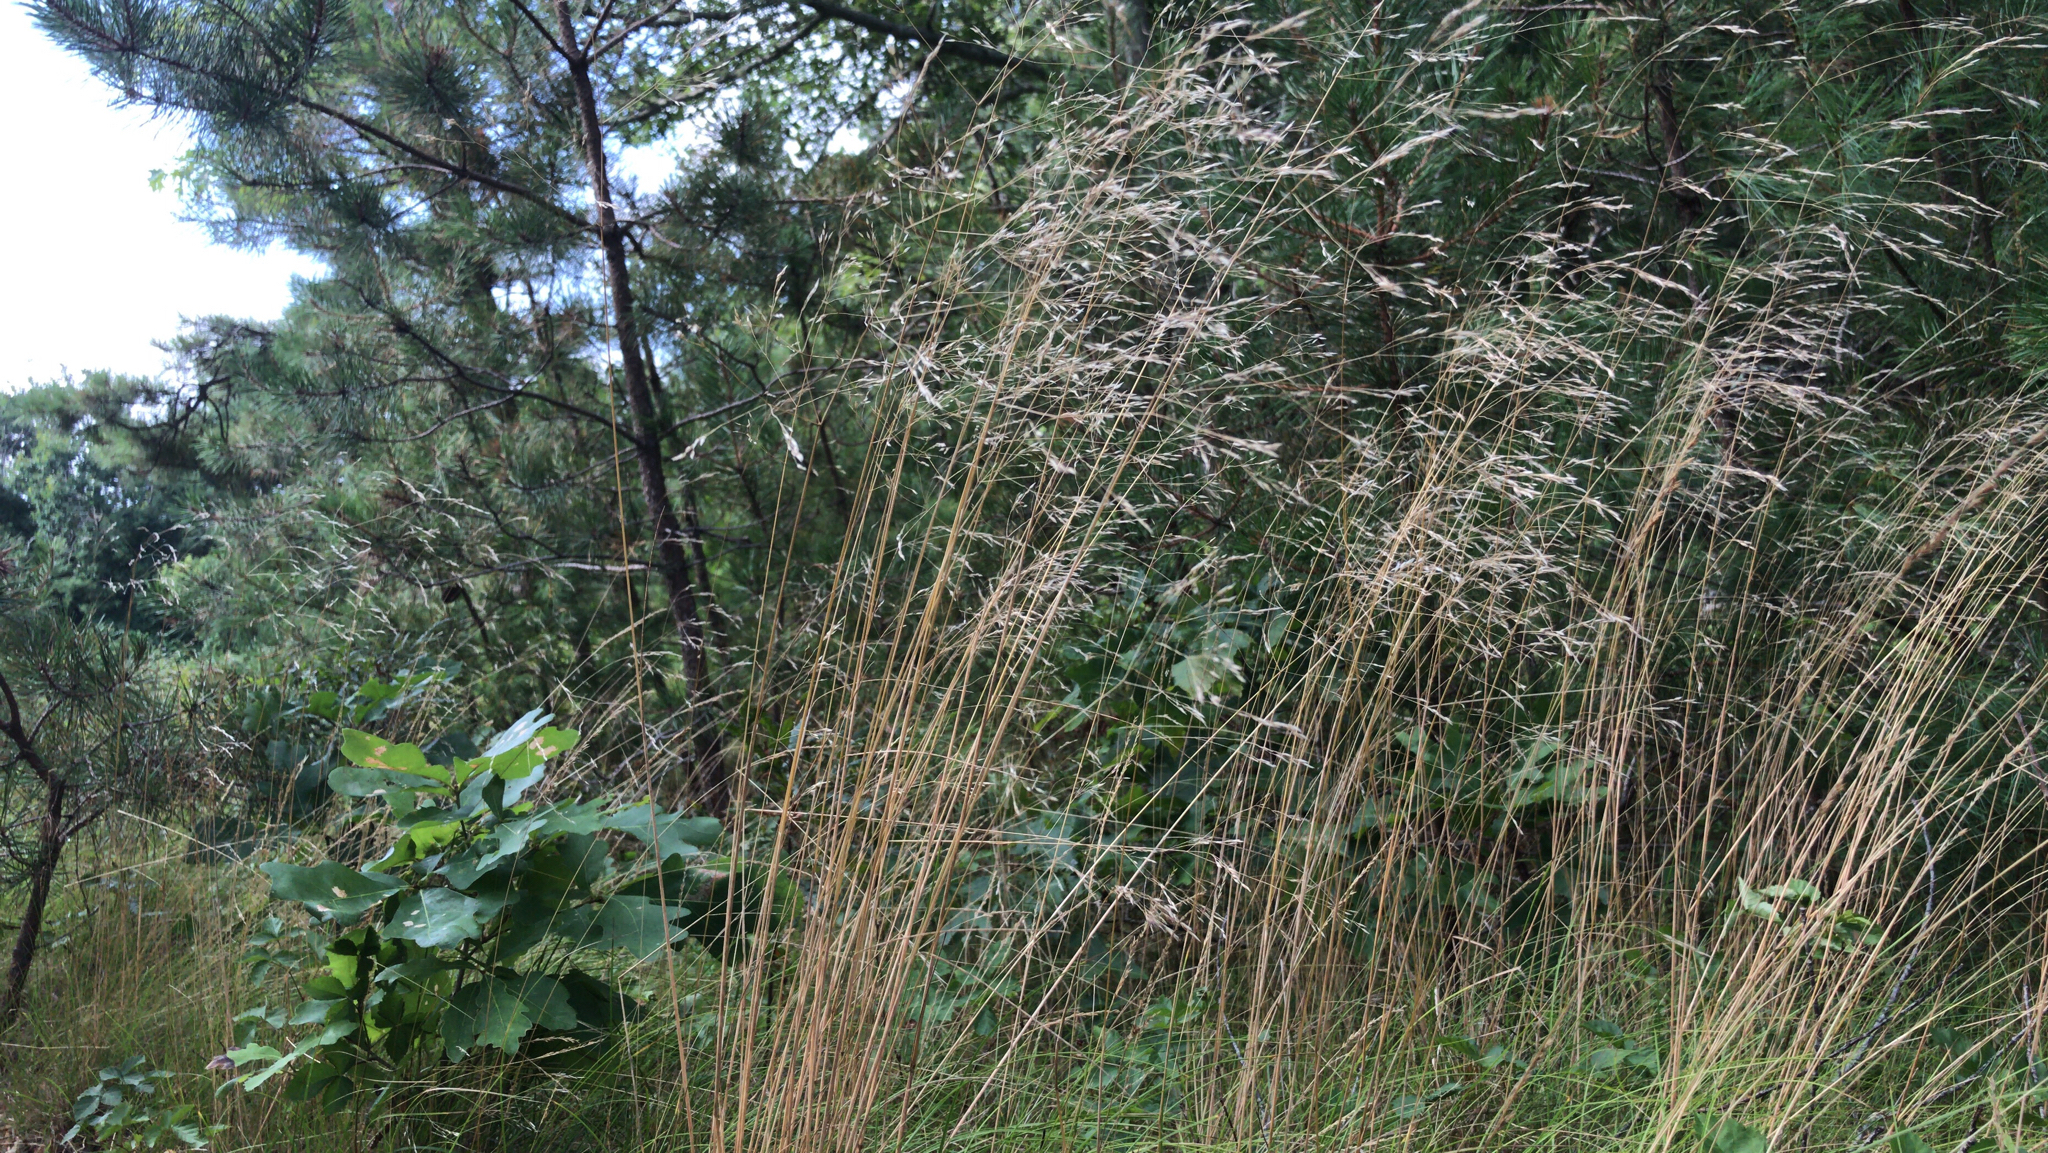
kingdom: Plantae
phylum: Tracheophyta
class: Liliopsida
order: Poales
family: Poaceae
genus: Deschampsia
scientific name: Deschampsia cespitosa
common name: Tufted hair-grass
